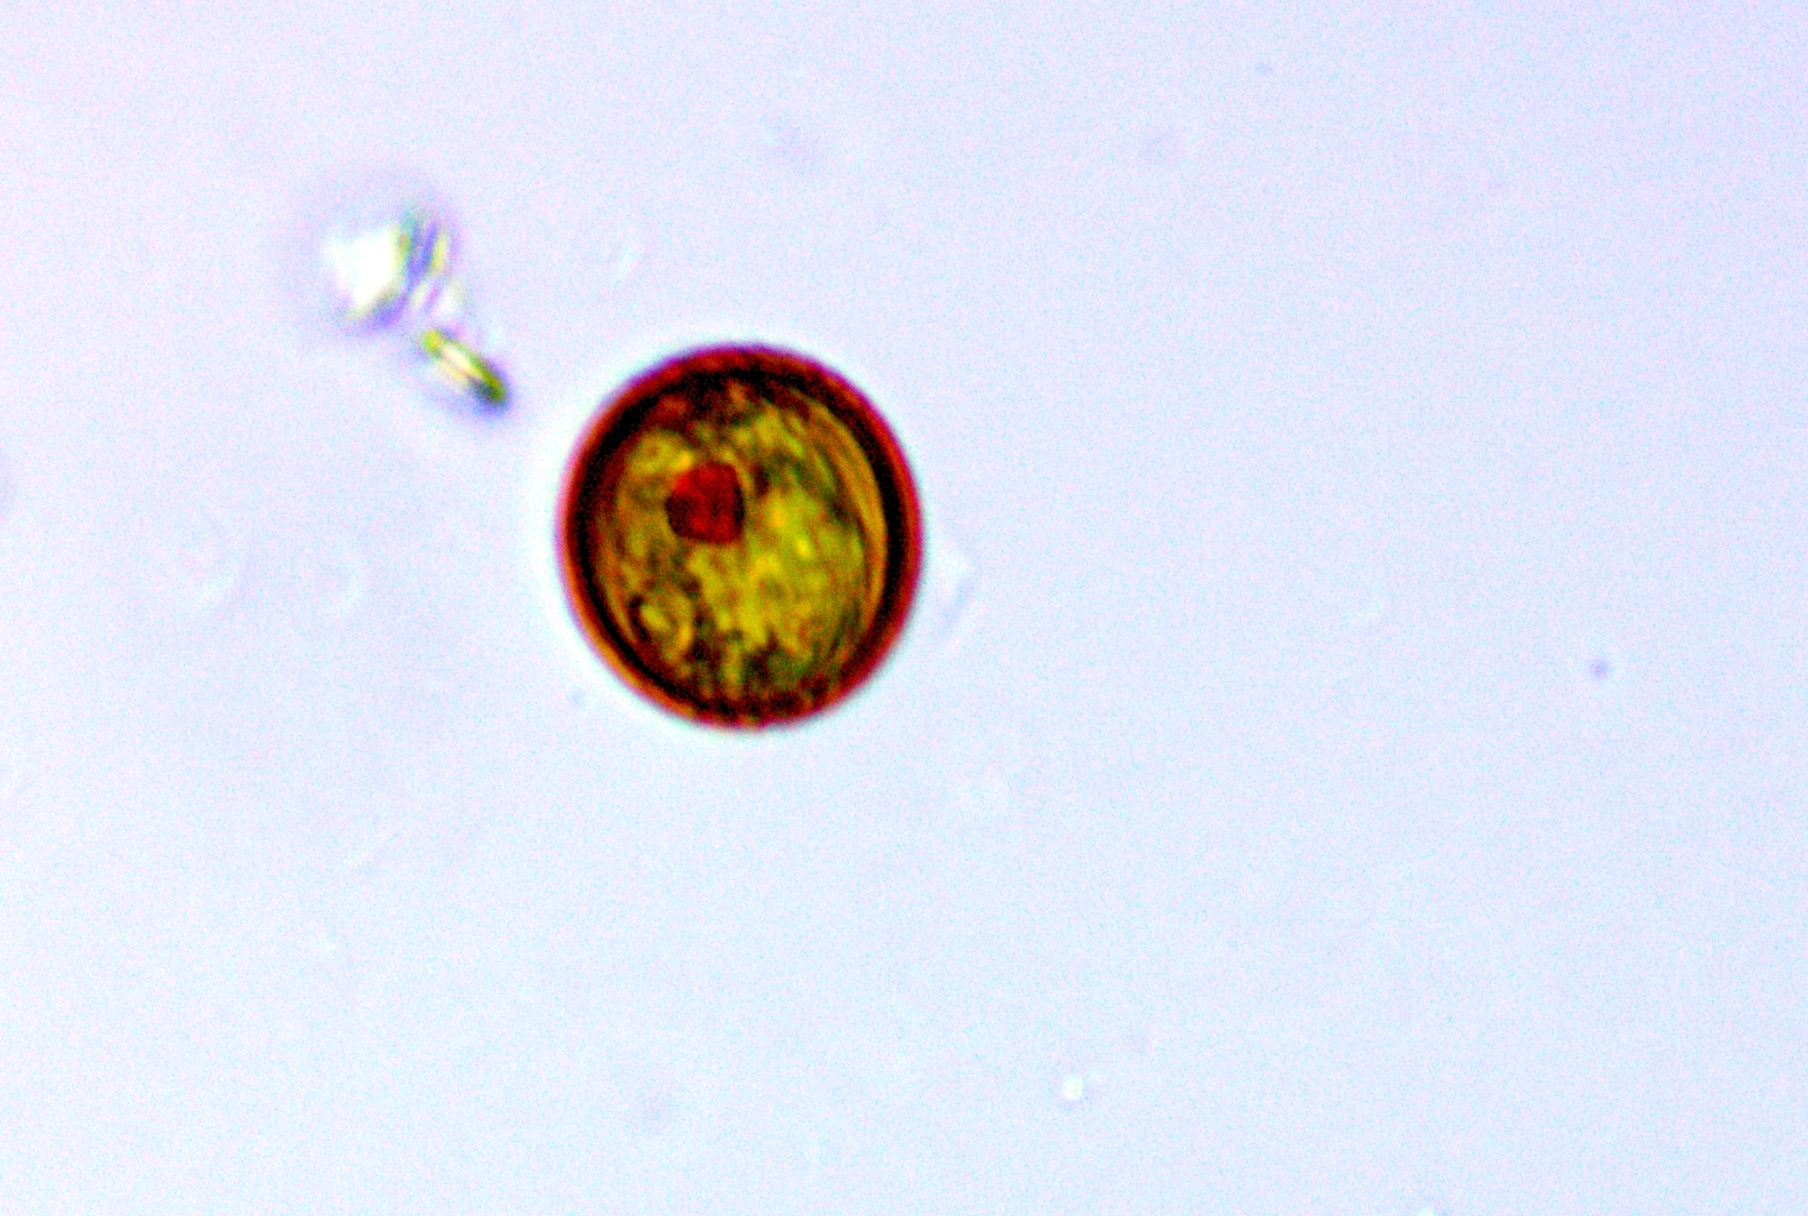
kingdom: Protozoa
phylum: Euglenozoa
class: Euglenoidea
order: Euglenida
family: Euglenaceae
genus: Trachelomonas
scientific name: Trachelomonas stokesiana
